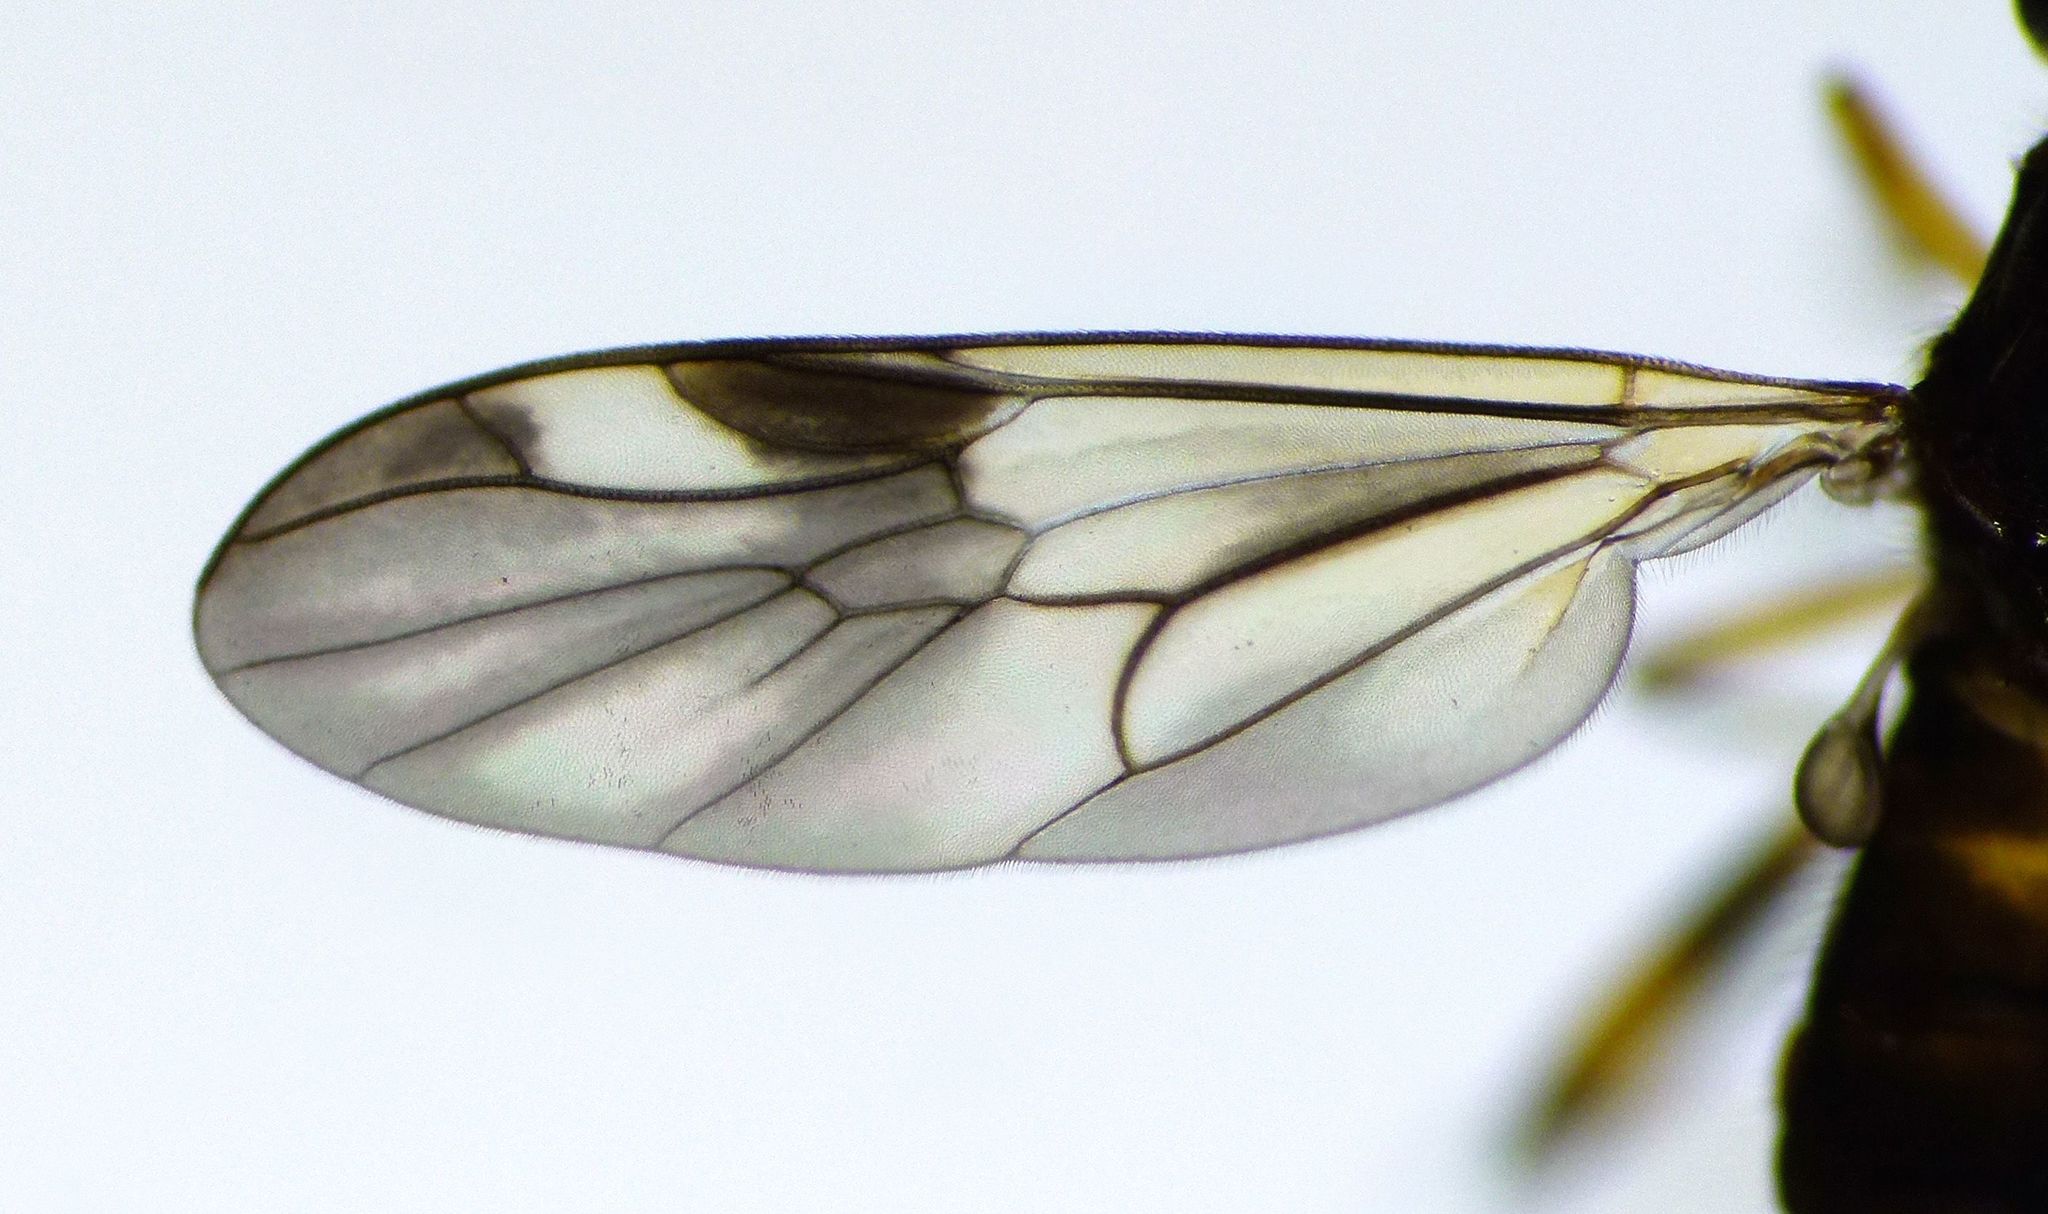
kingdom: Animalia
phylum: Arthropoda
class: Insecta
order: Diptera
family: Stratiomyidae
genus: Benhamyia
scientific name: Benhamyia hoheria
